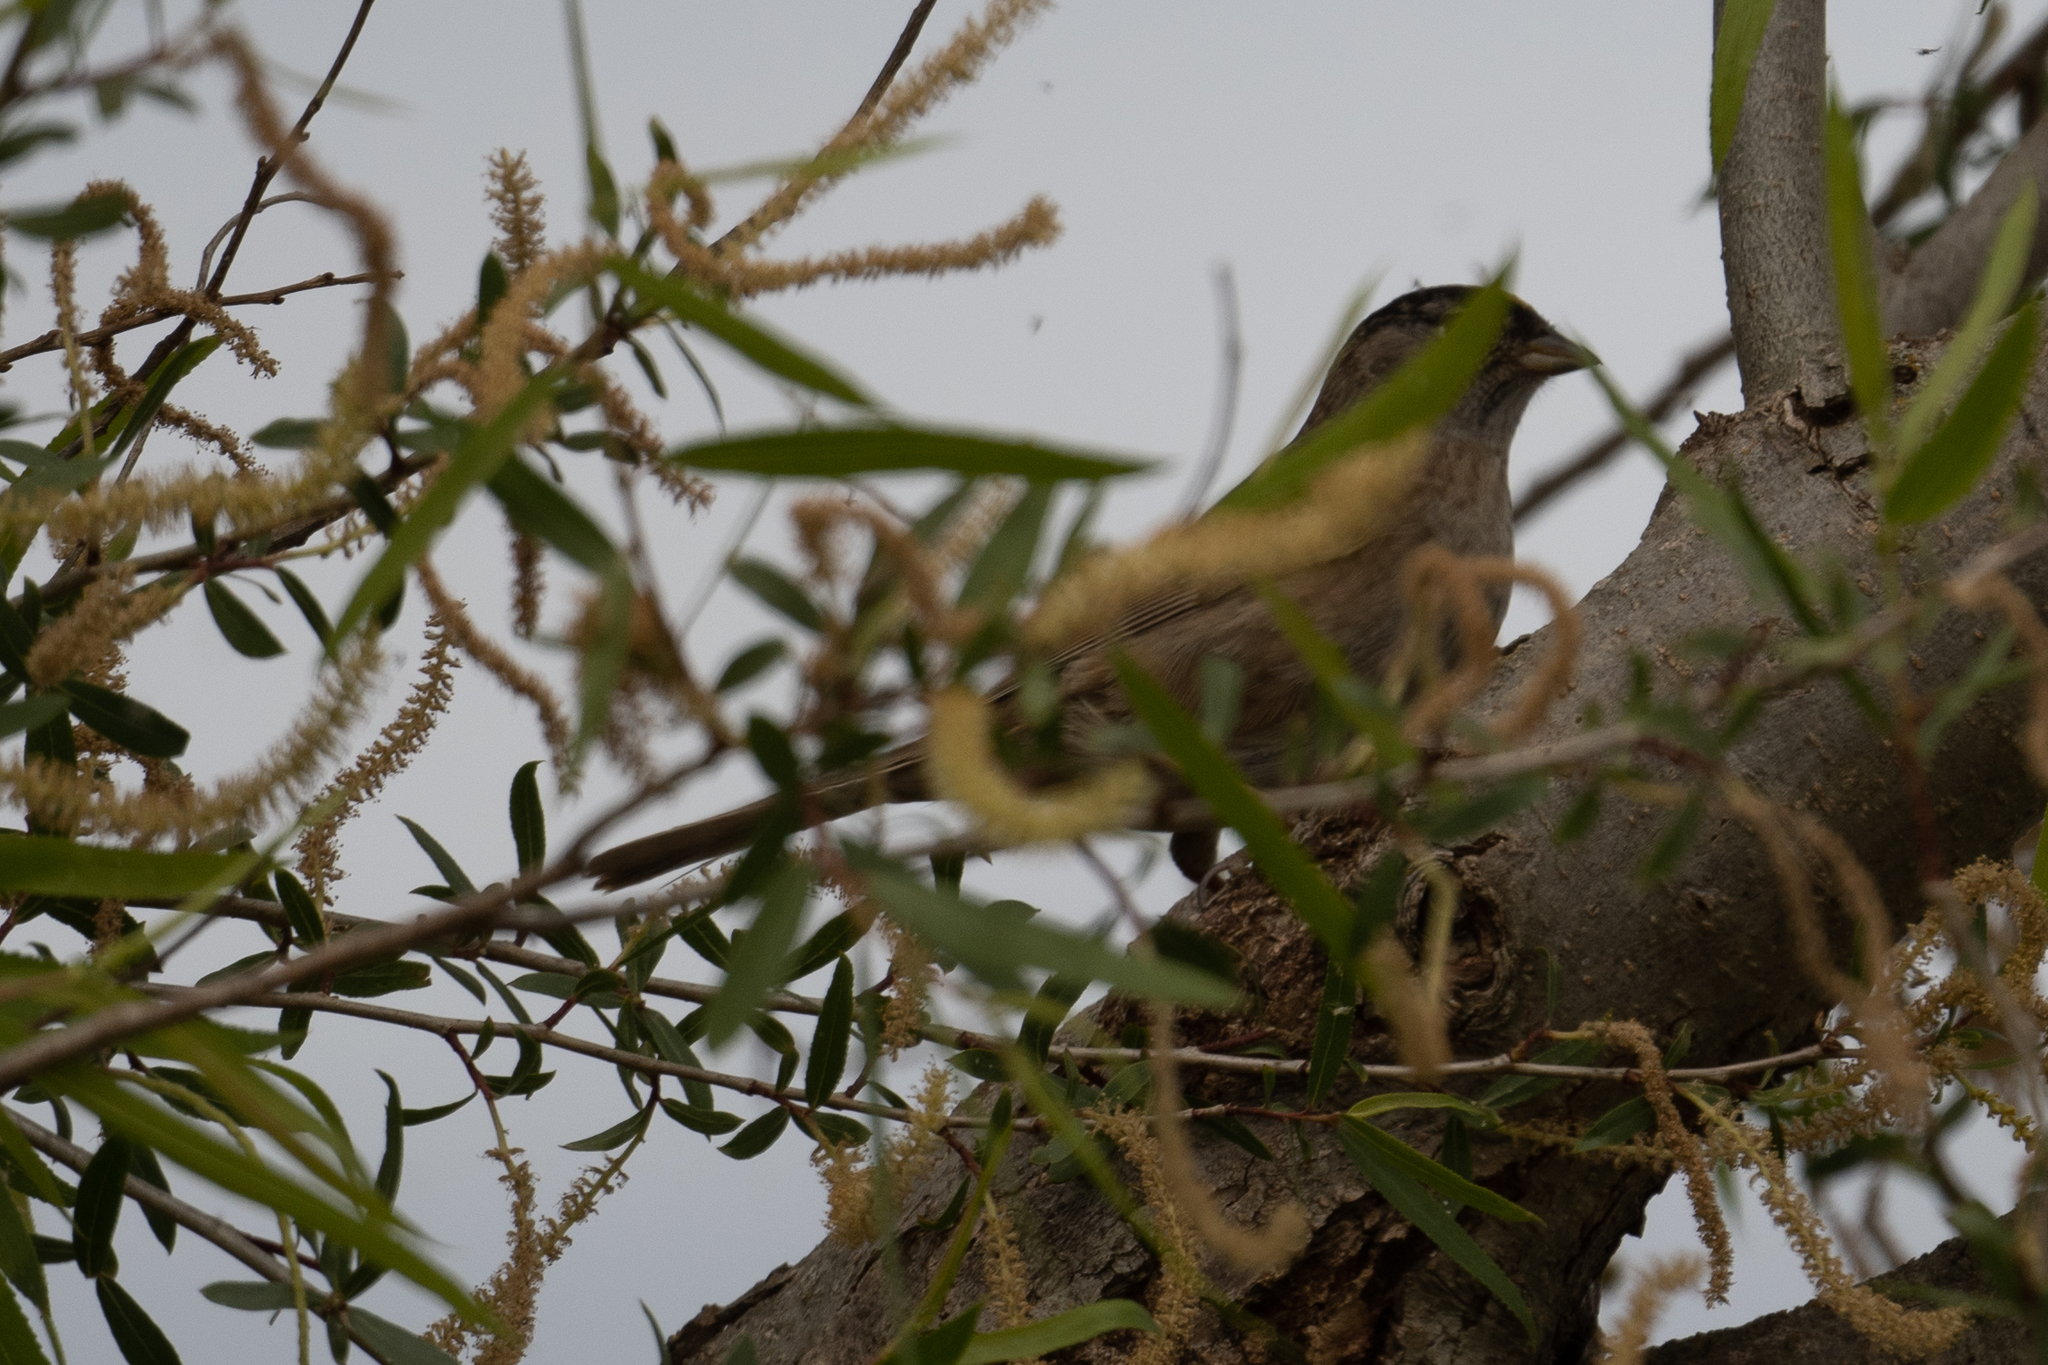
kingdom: Animalia
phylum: Chordata
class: Aves
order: Passeriformes
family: Passerellidae
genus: Zonotrichia
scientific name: Zonotrichia atricapilla
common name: Golden-crowned sparrow
